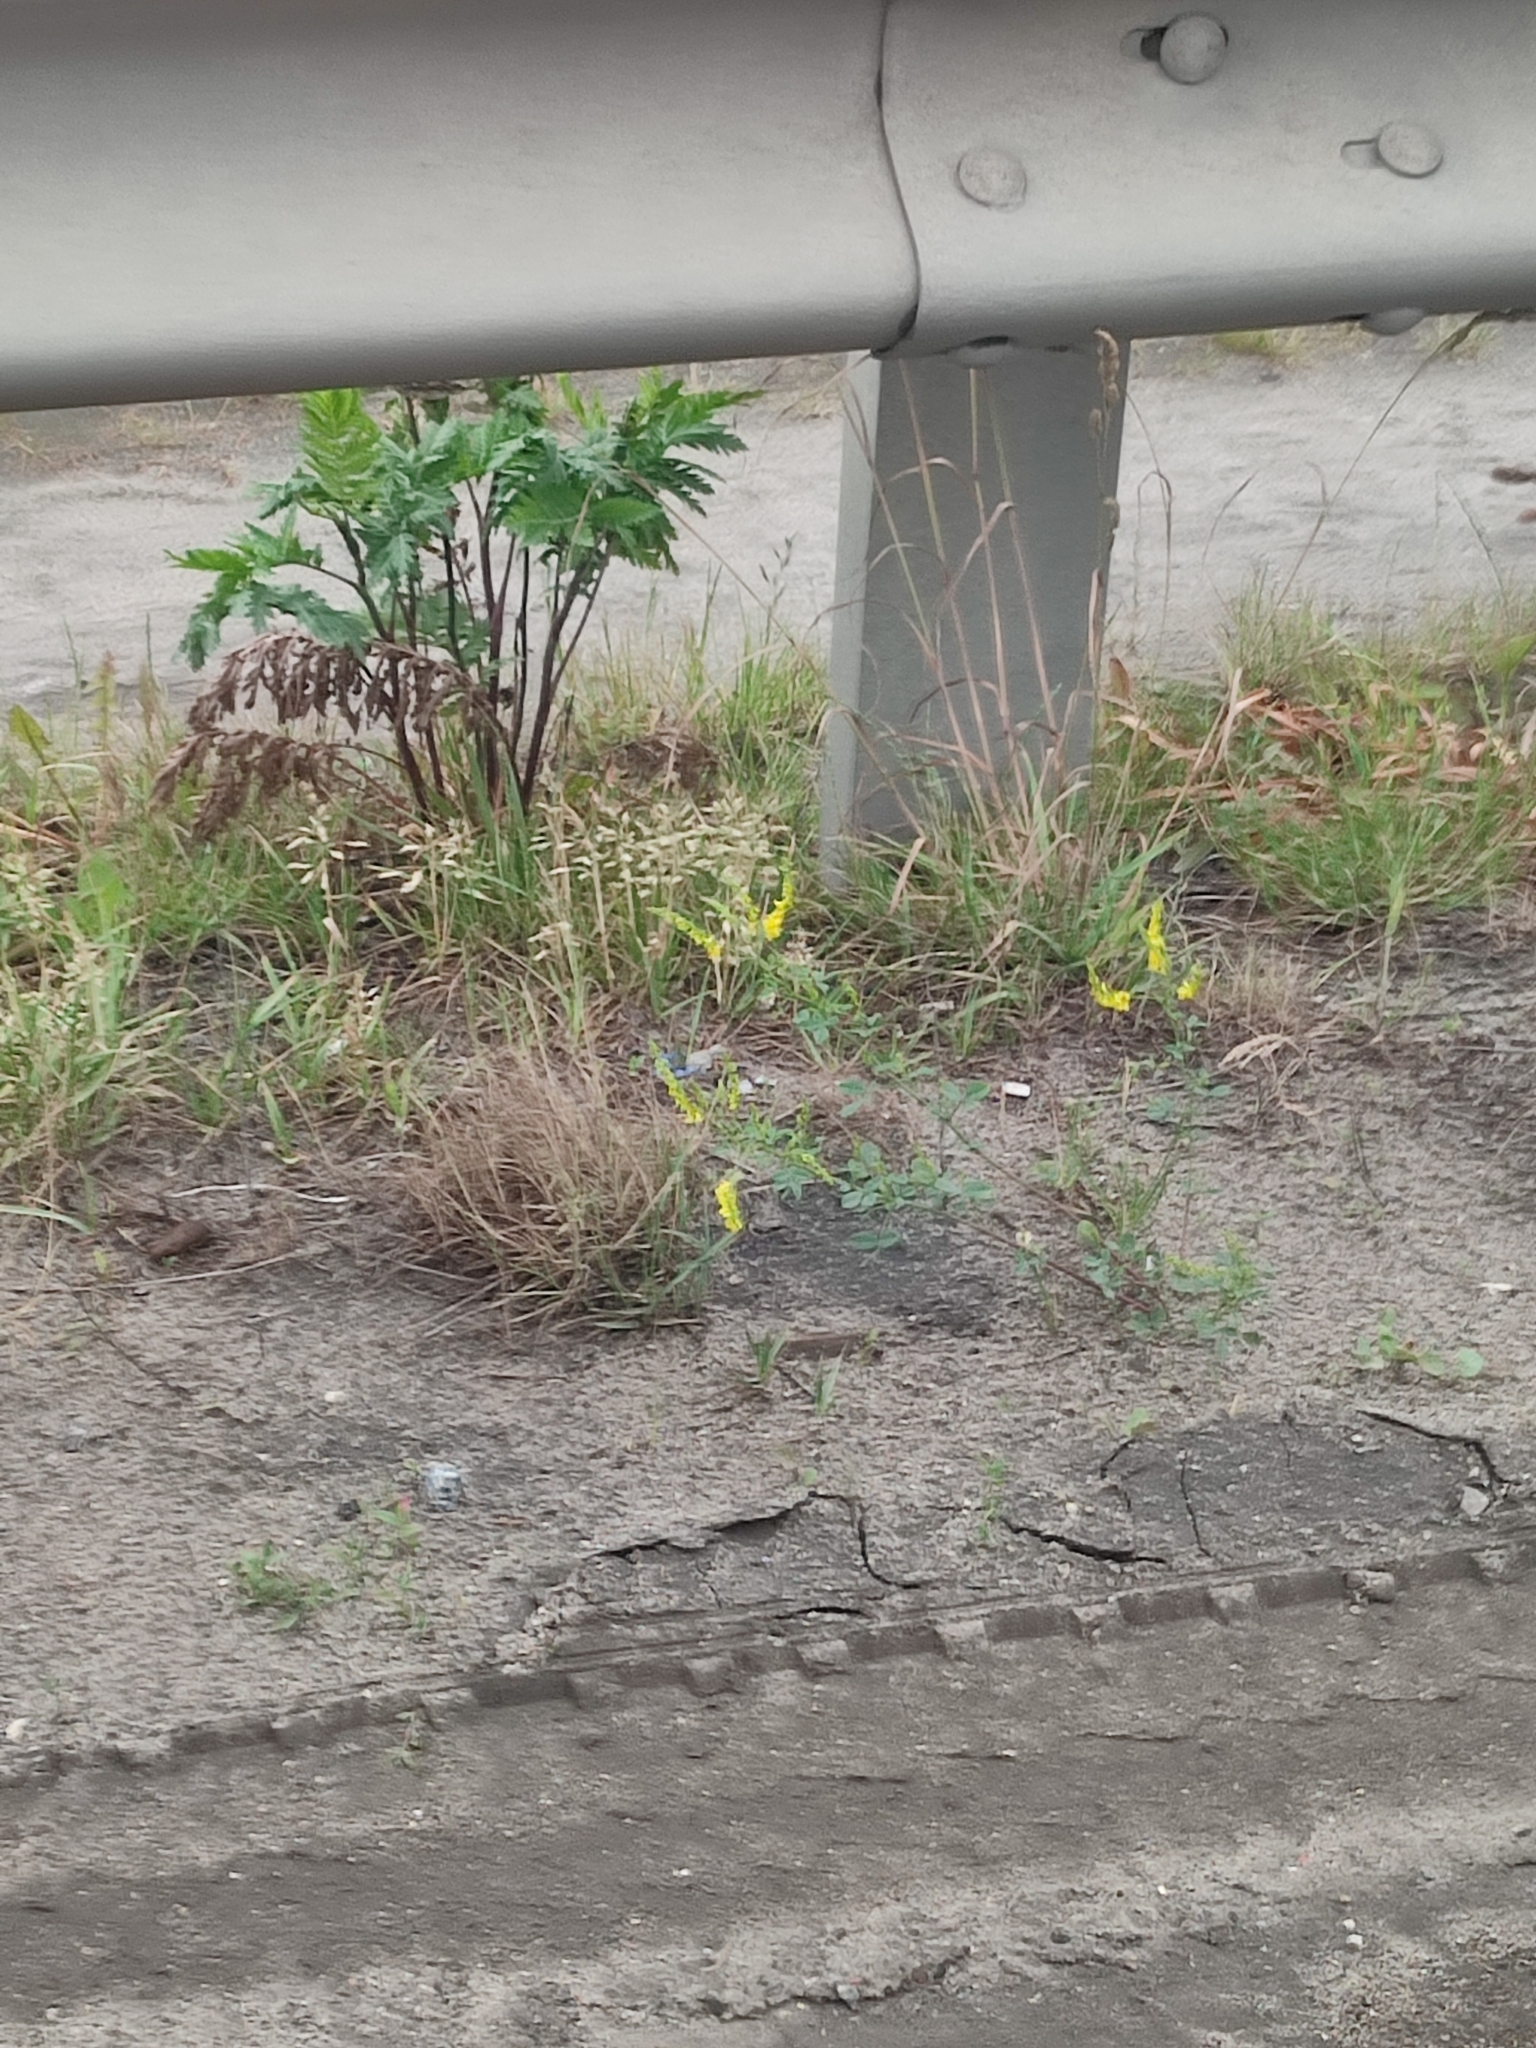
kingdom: Plantae
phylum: Tracheophyta
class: Magnoliopsida
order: Asterales
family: Asteraceae
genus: Artemisia
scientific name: Artemisia vulgaris
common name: Mugwort
